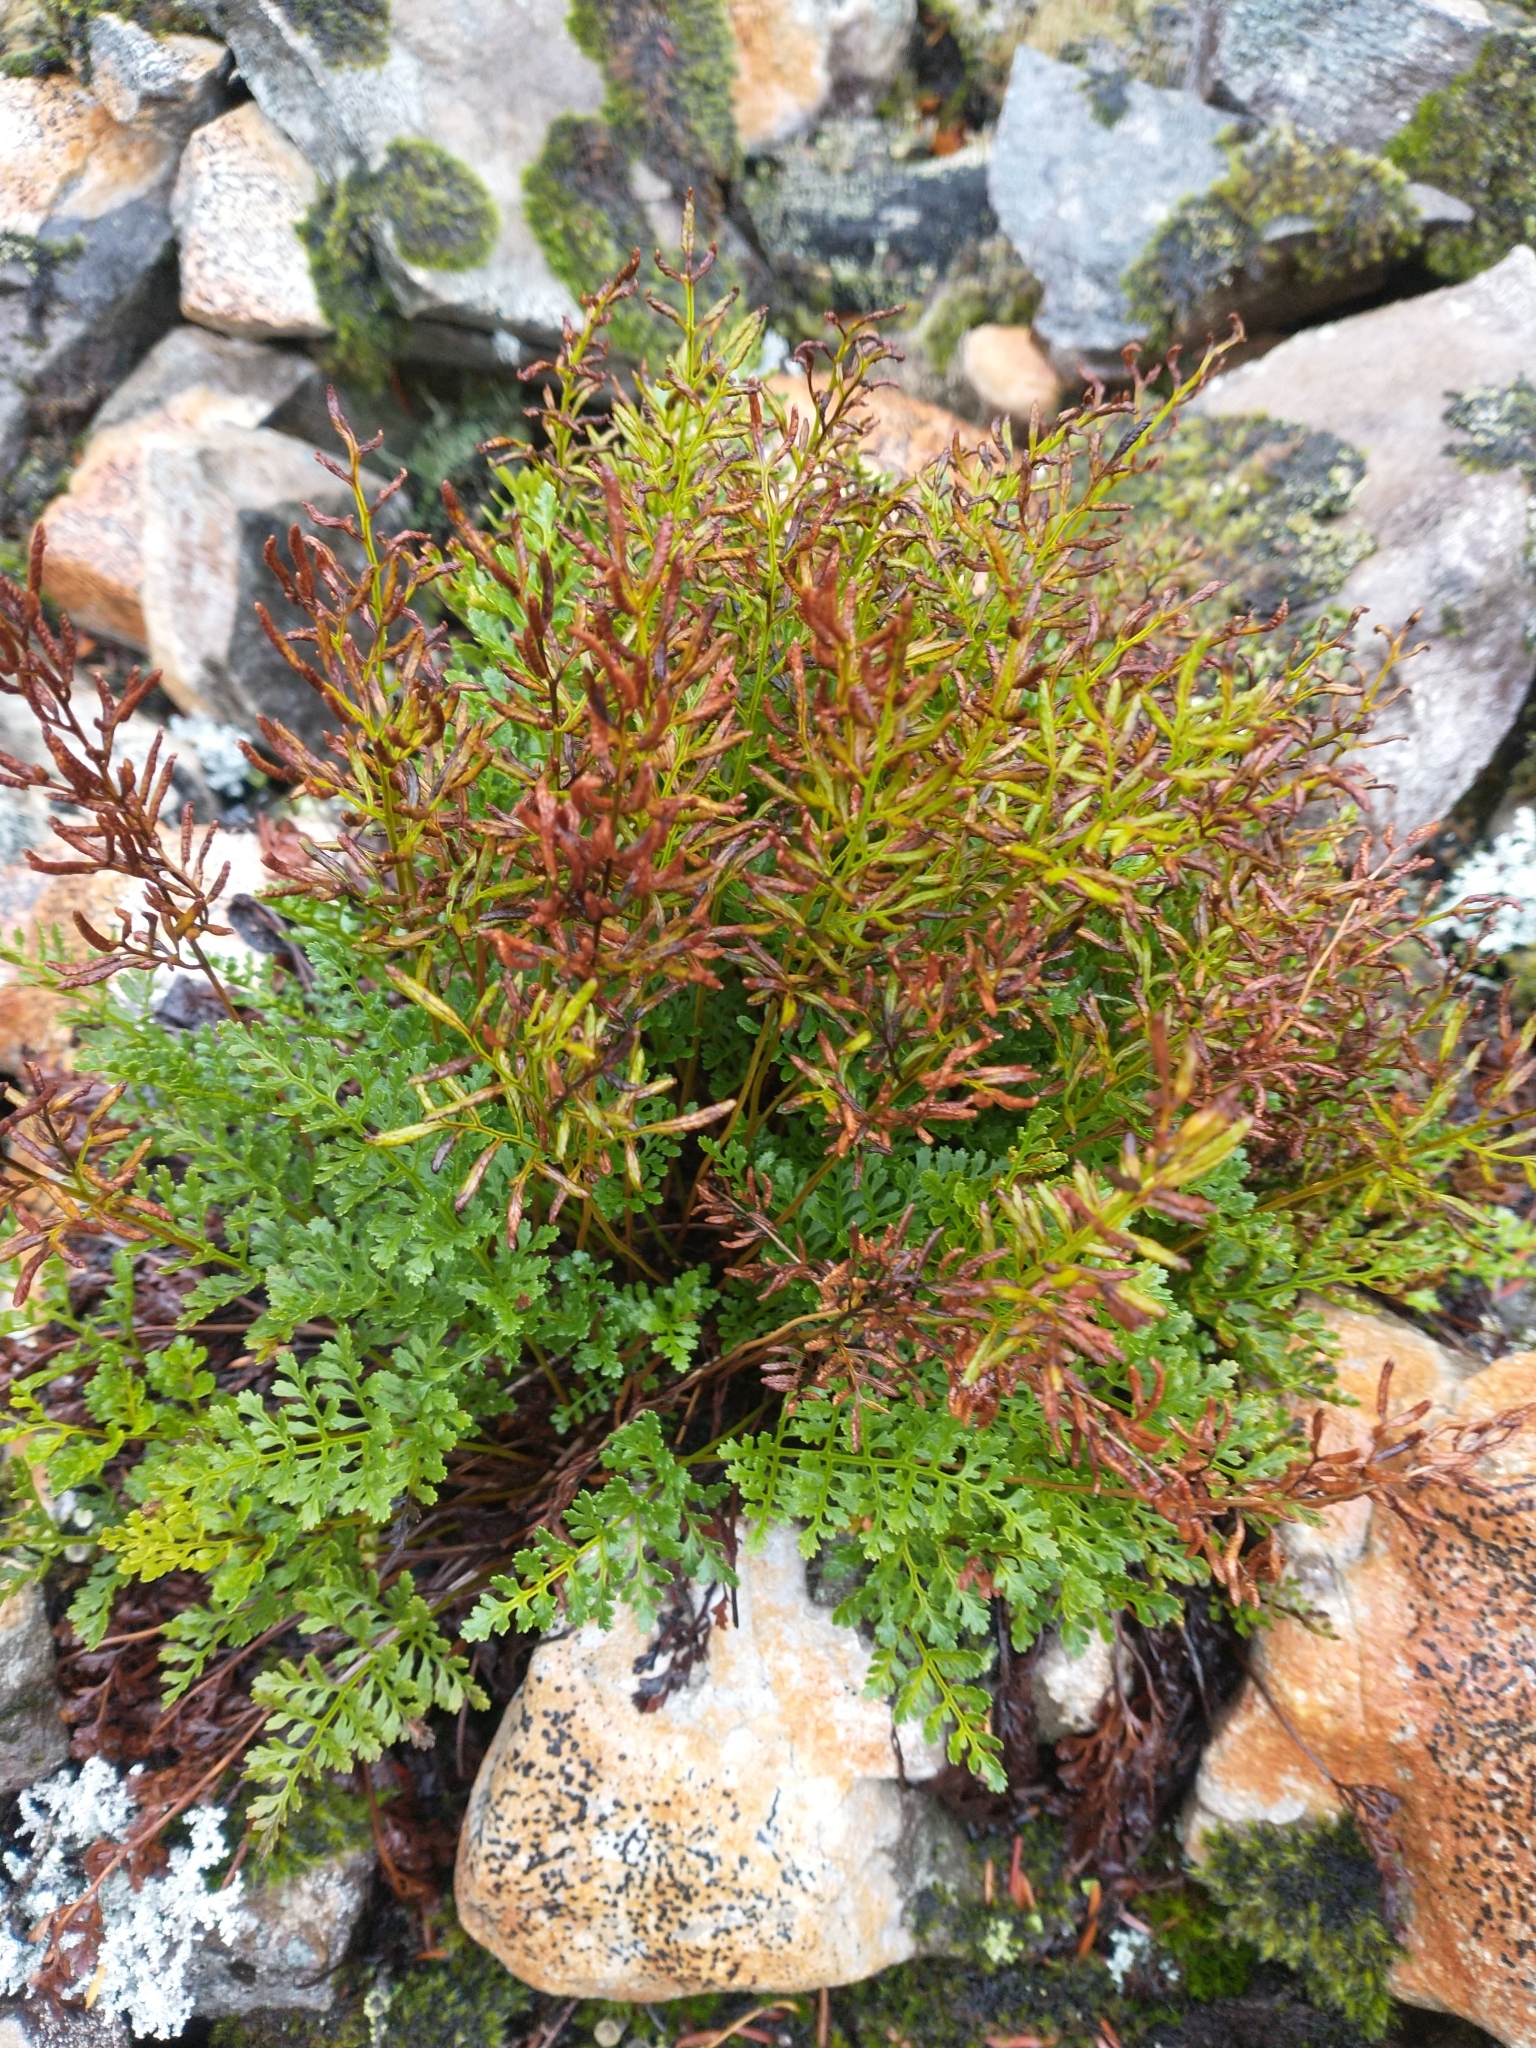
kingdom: Plantae
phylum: Tracheophyta
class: Polypodiopsida
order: Polypodiales
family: Pteridaceae
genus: Cryptogramma
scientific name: Cryptogramma acrostichoides
